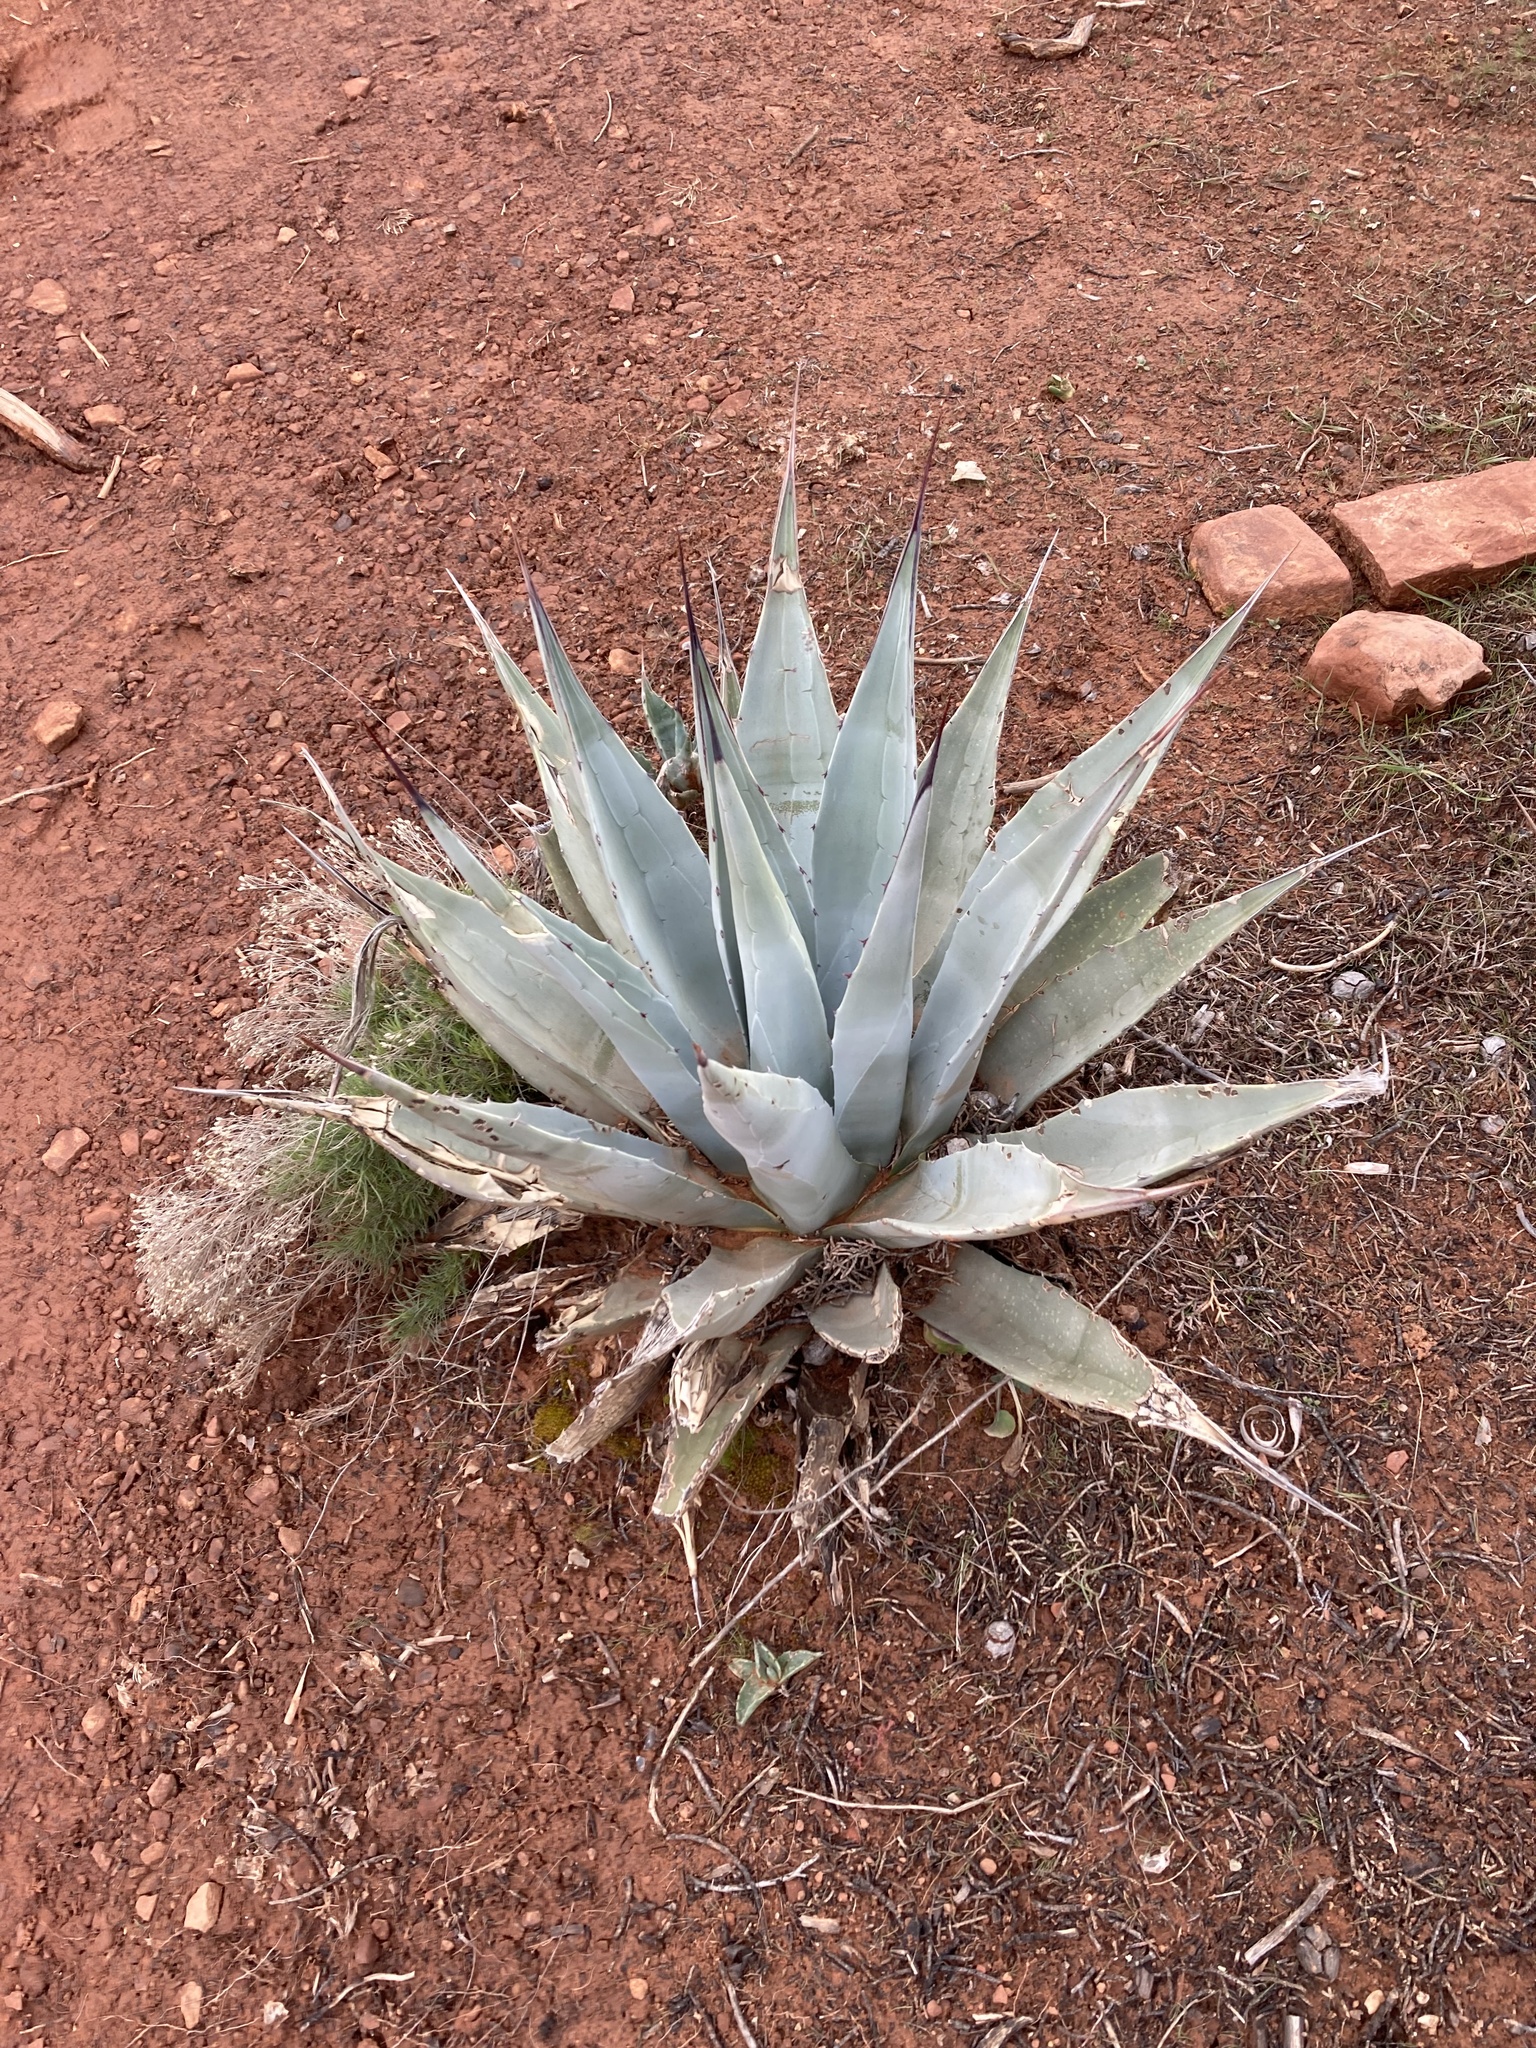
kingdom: Plantae
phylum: Tracheophyta
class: Liliopsida
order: Asparagales
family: Asparagaceae
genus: Agave
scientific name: Agave parryi
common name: Parry's agave
